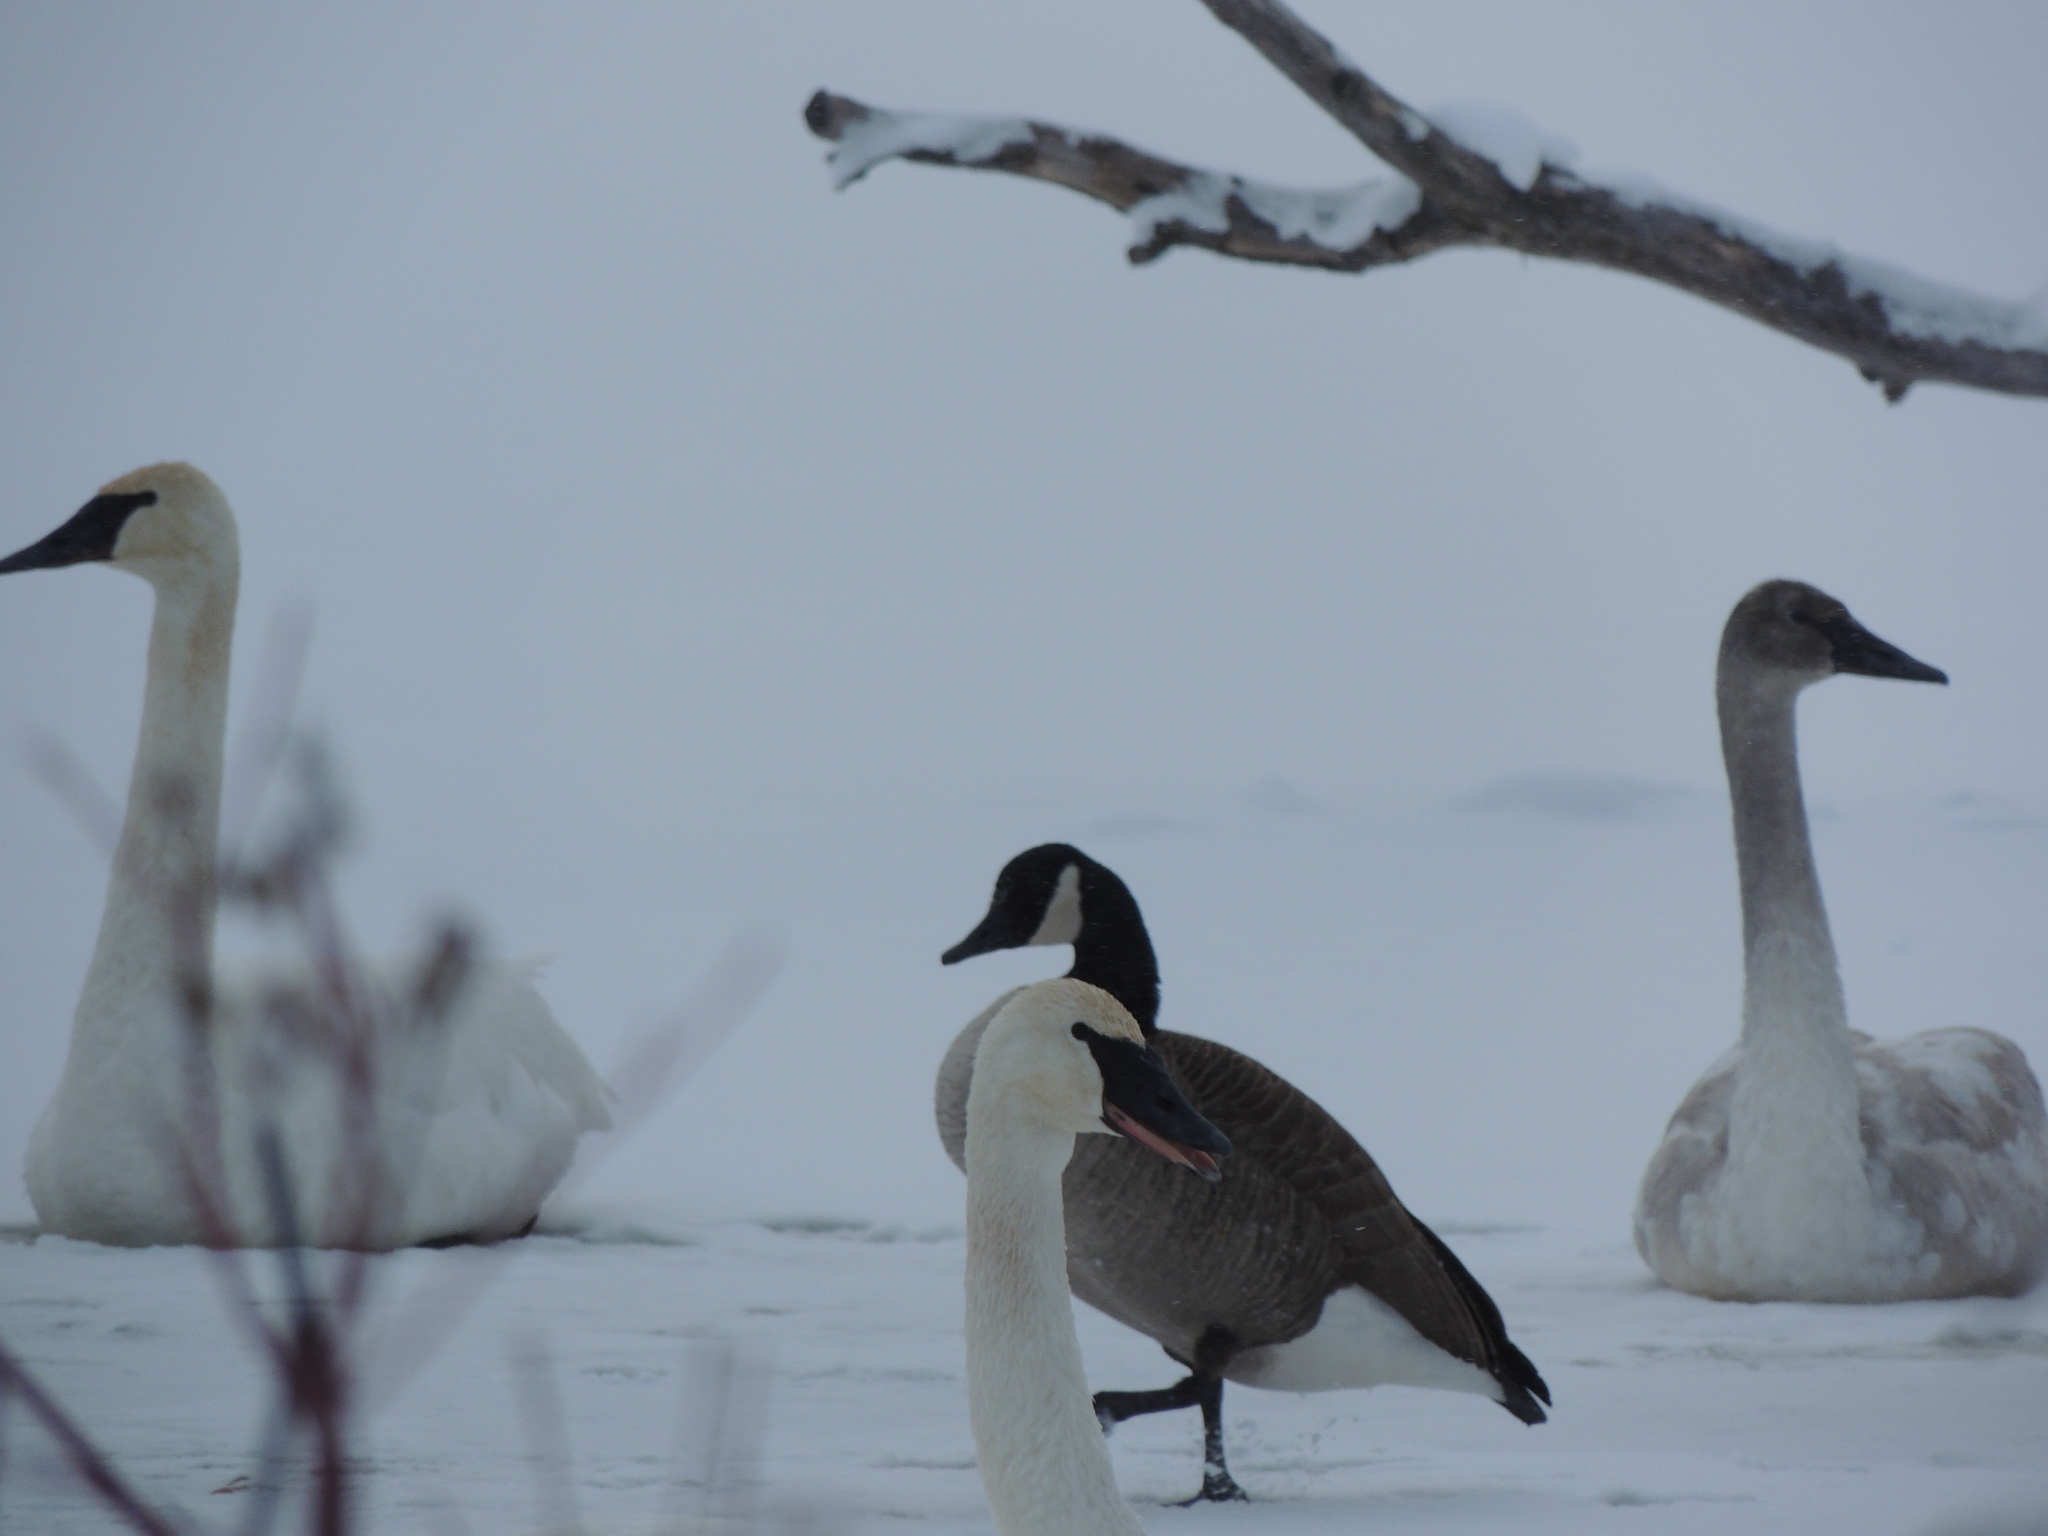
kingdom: Animalia
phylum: Chordata
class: Aves
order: Anseriformes
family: Anatidae
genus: Branta
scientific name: Branta canadensis
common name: Canada goose
